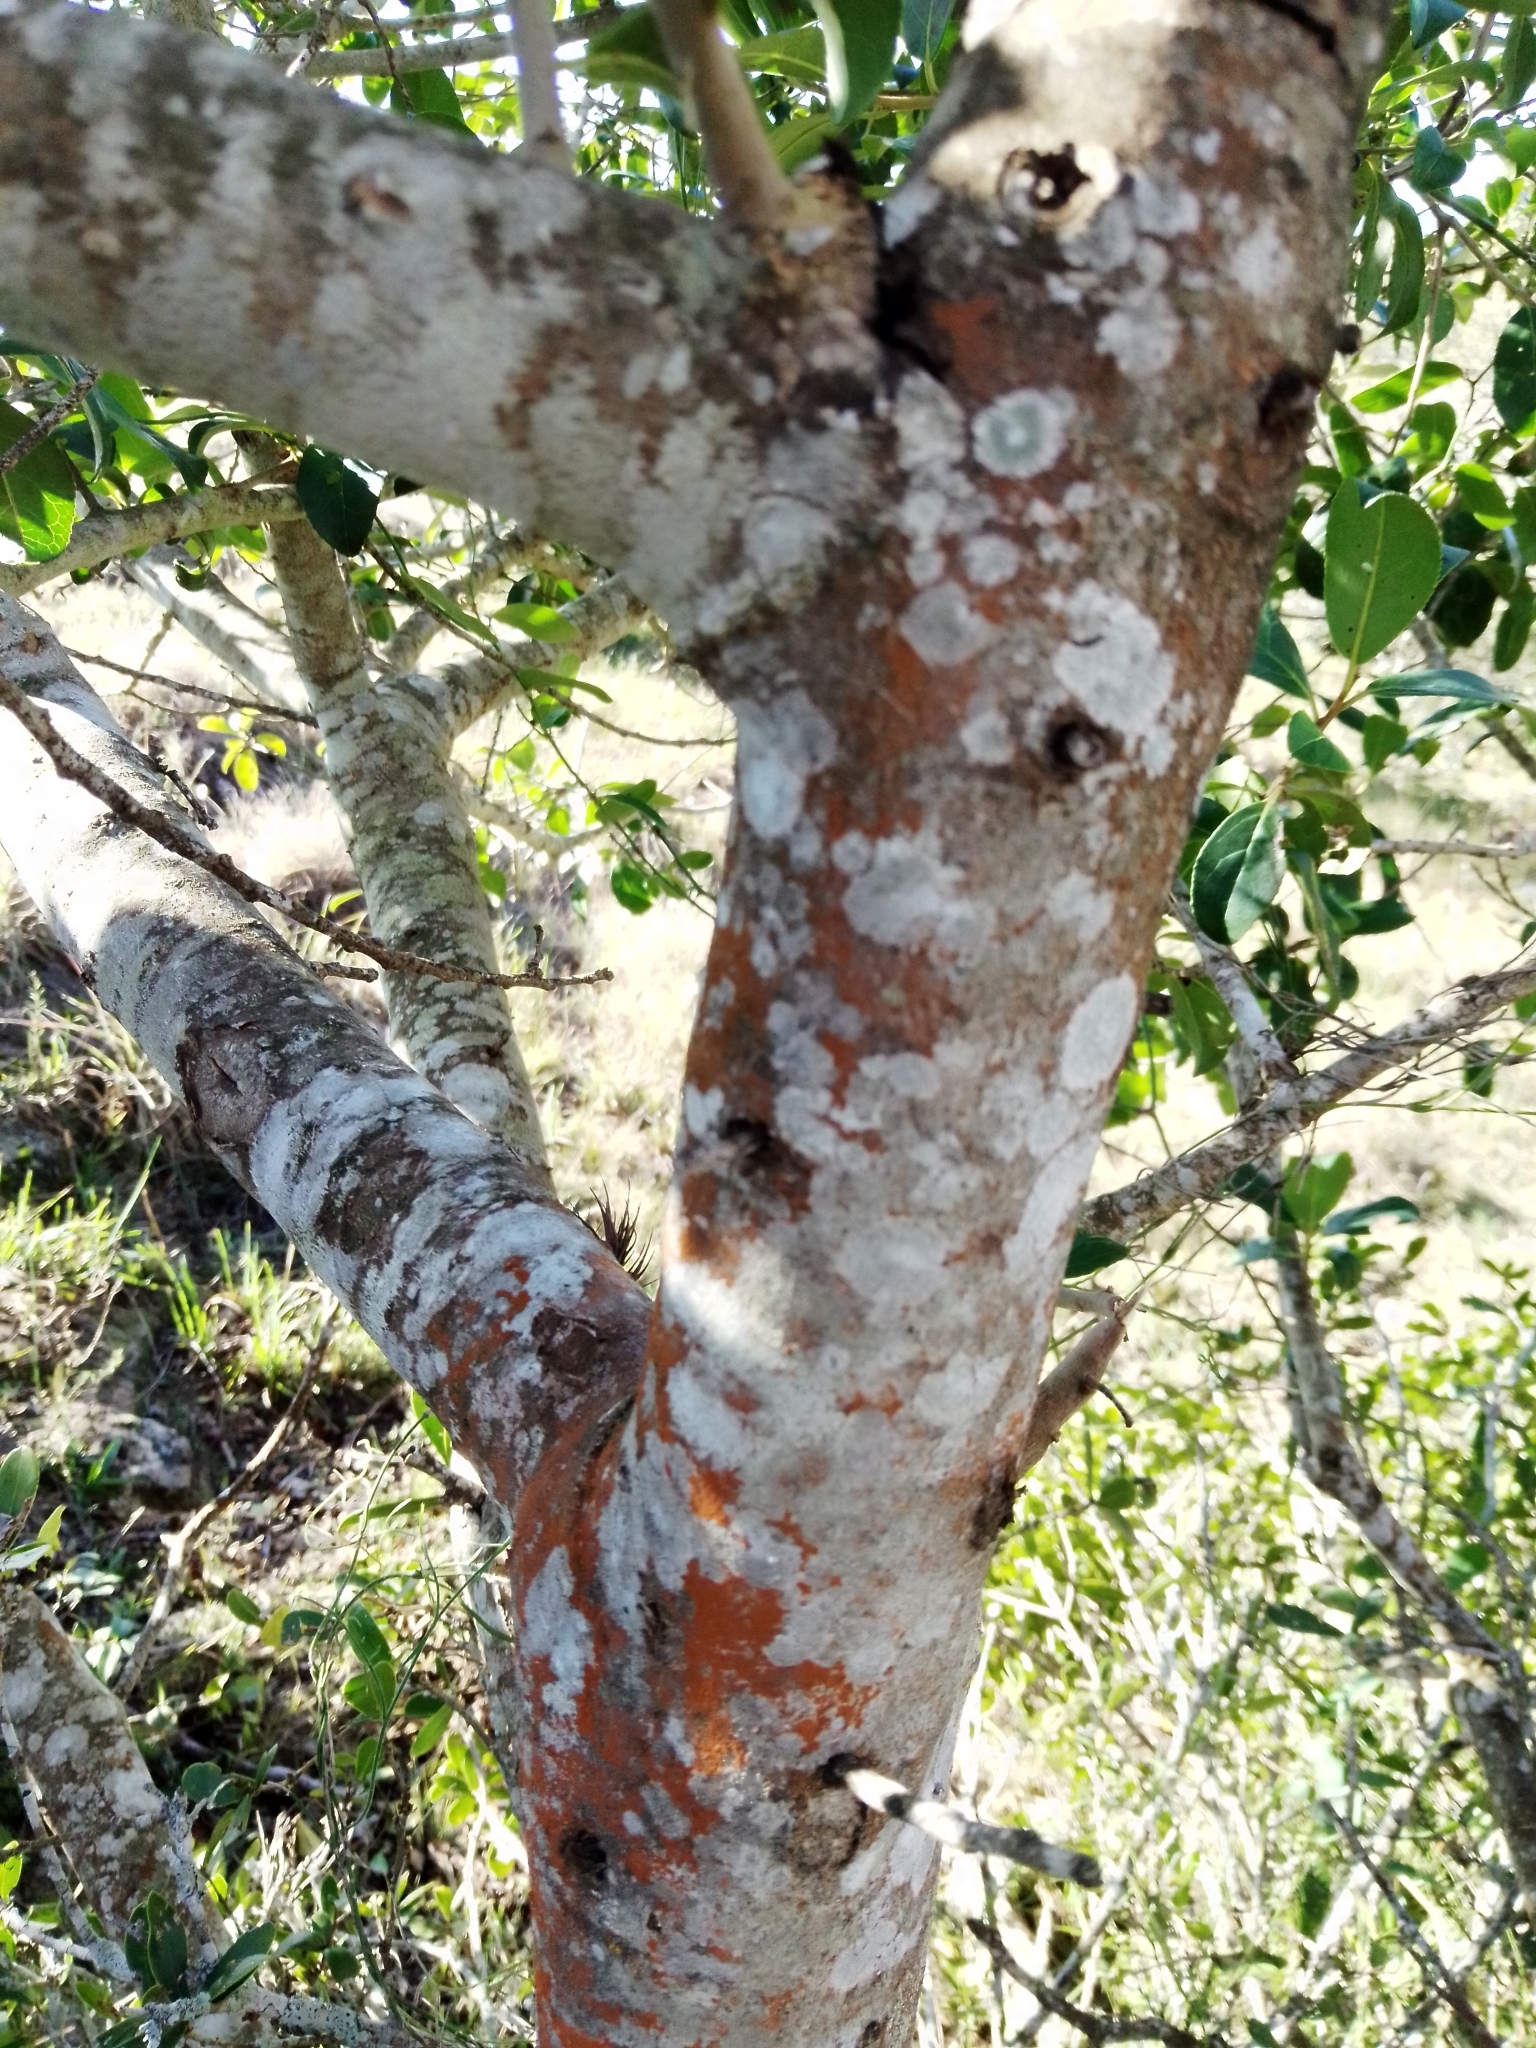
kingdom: Plantae
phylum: Tracheophyta
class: Magnoliopsida
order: Ericales
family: Symplocaceae
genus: Symplocos
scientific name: Symplocos uniflora
